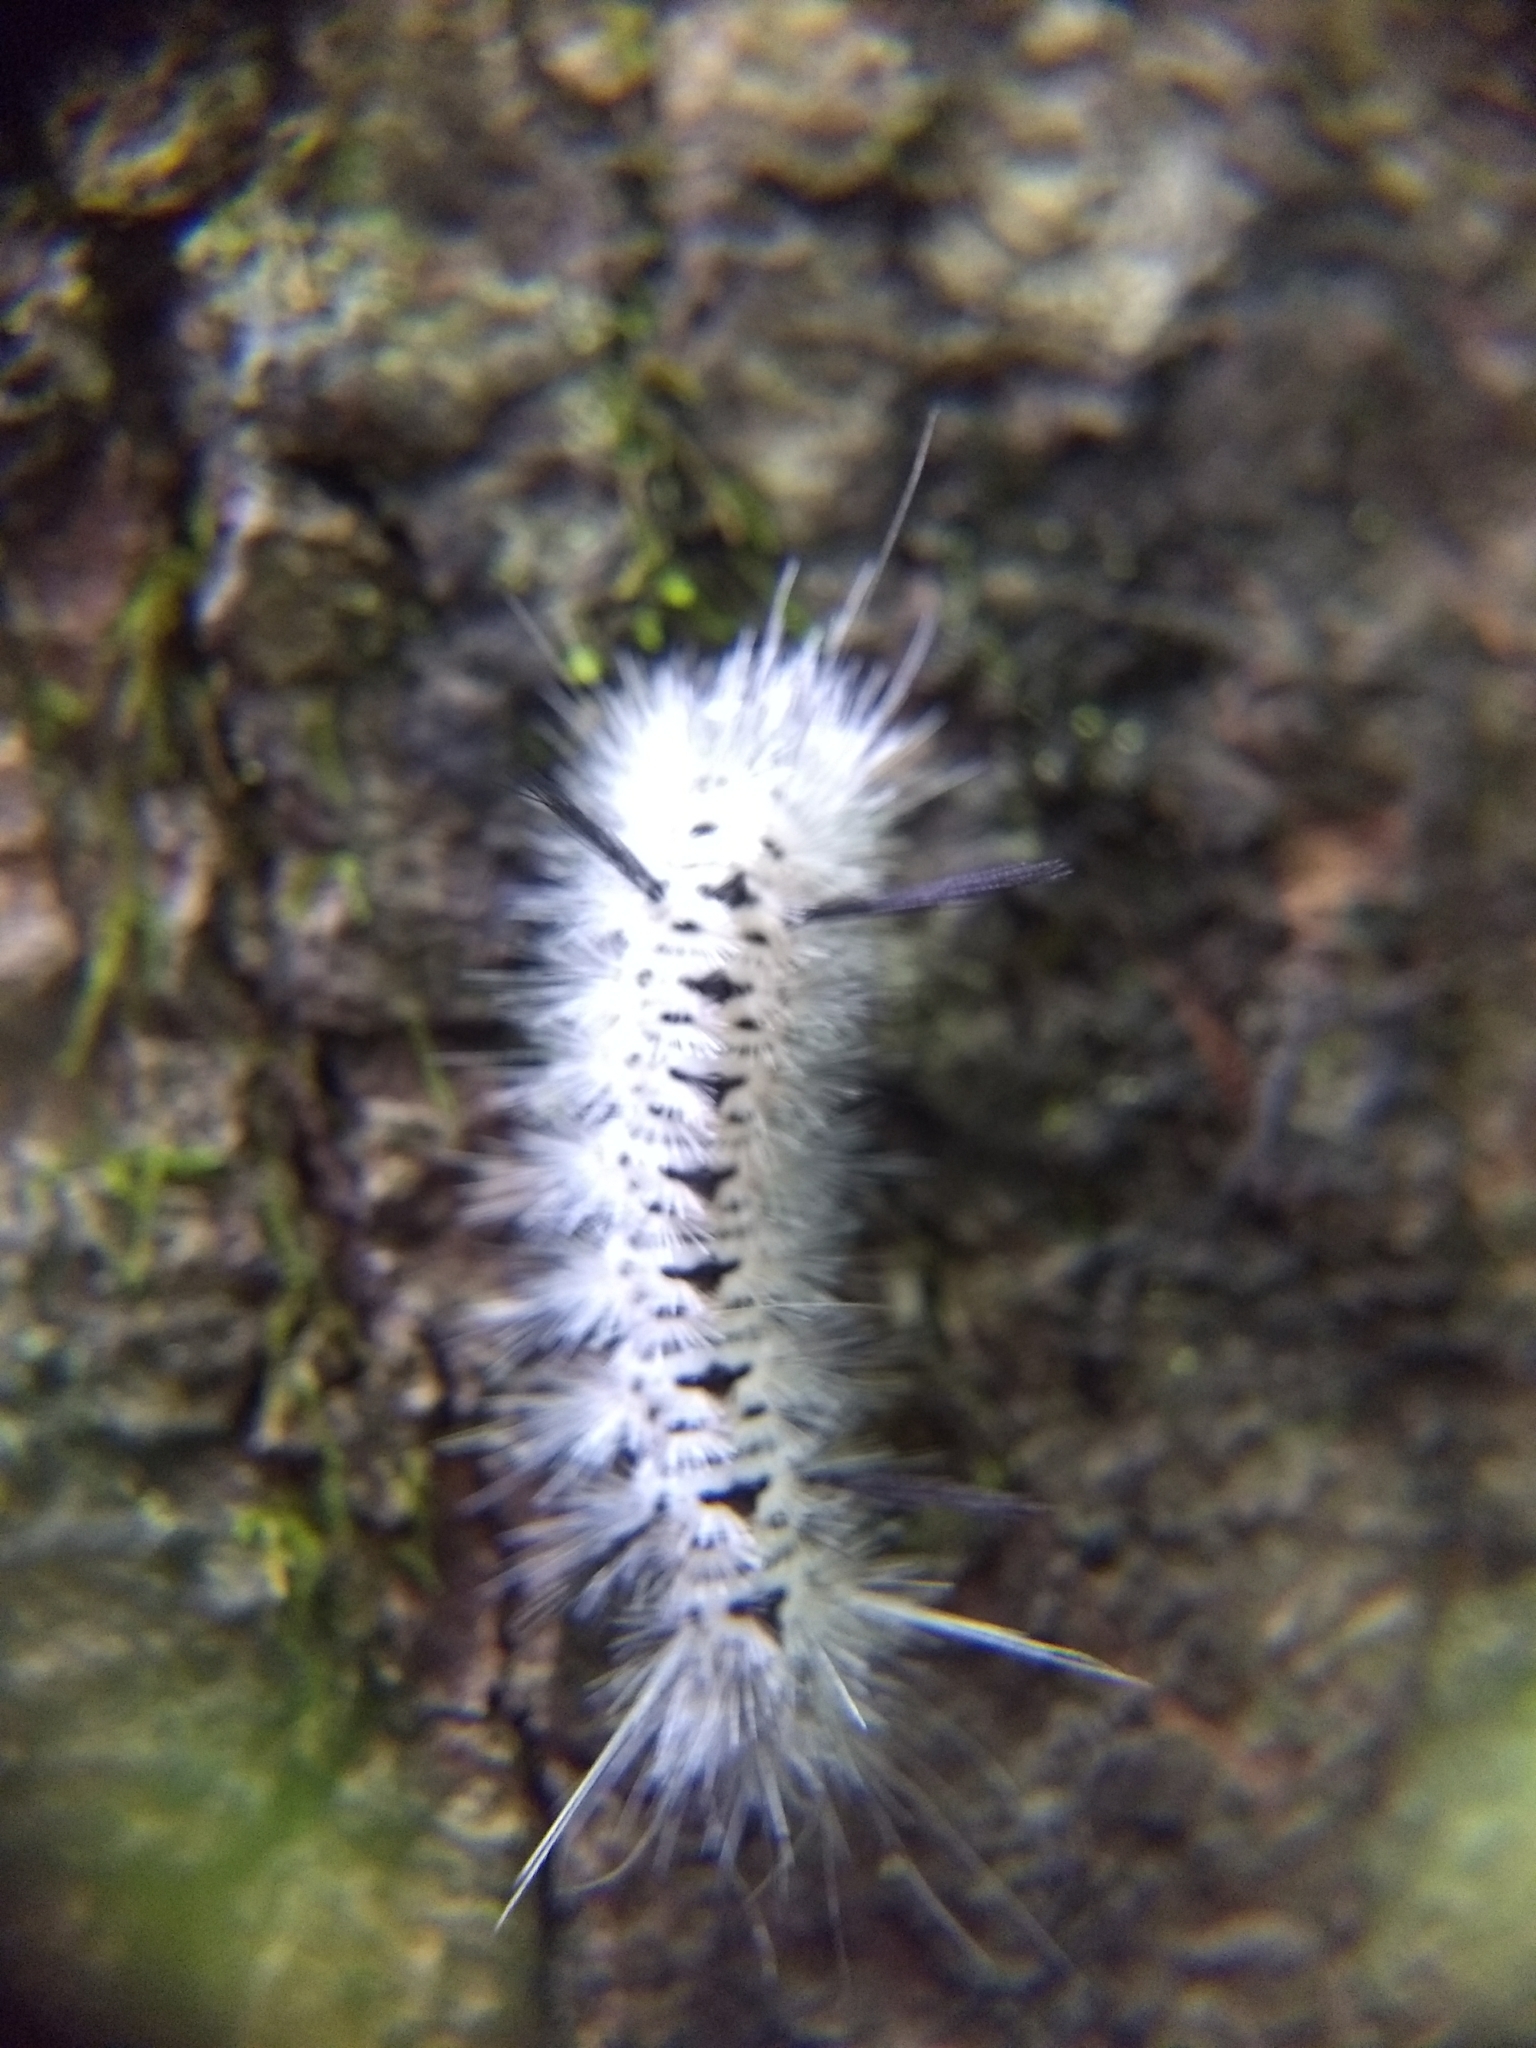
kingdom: Animalia
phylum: Arthropoda
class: Insecta
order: Lepidoptera
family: Erebidae
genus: Lophocampa
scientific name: Lophocampa caryae
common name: Hickory tussock moth
